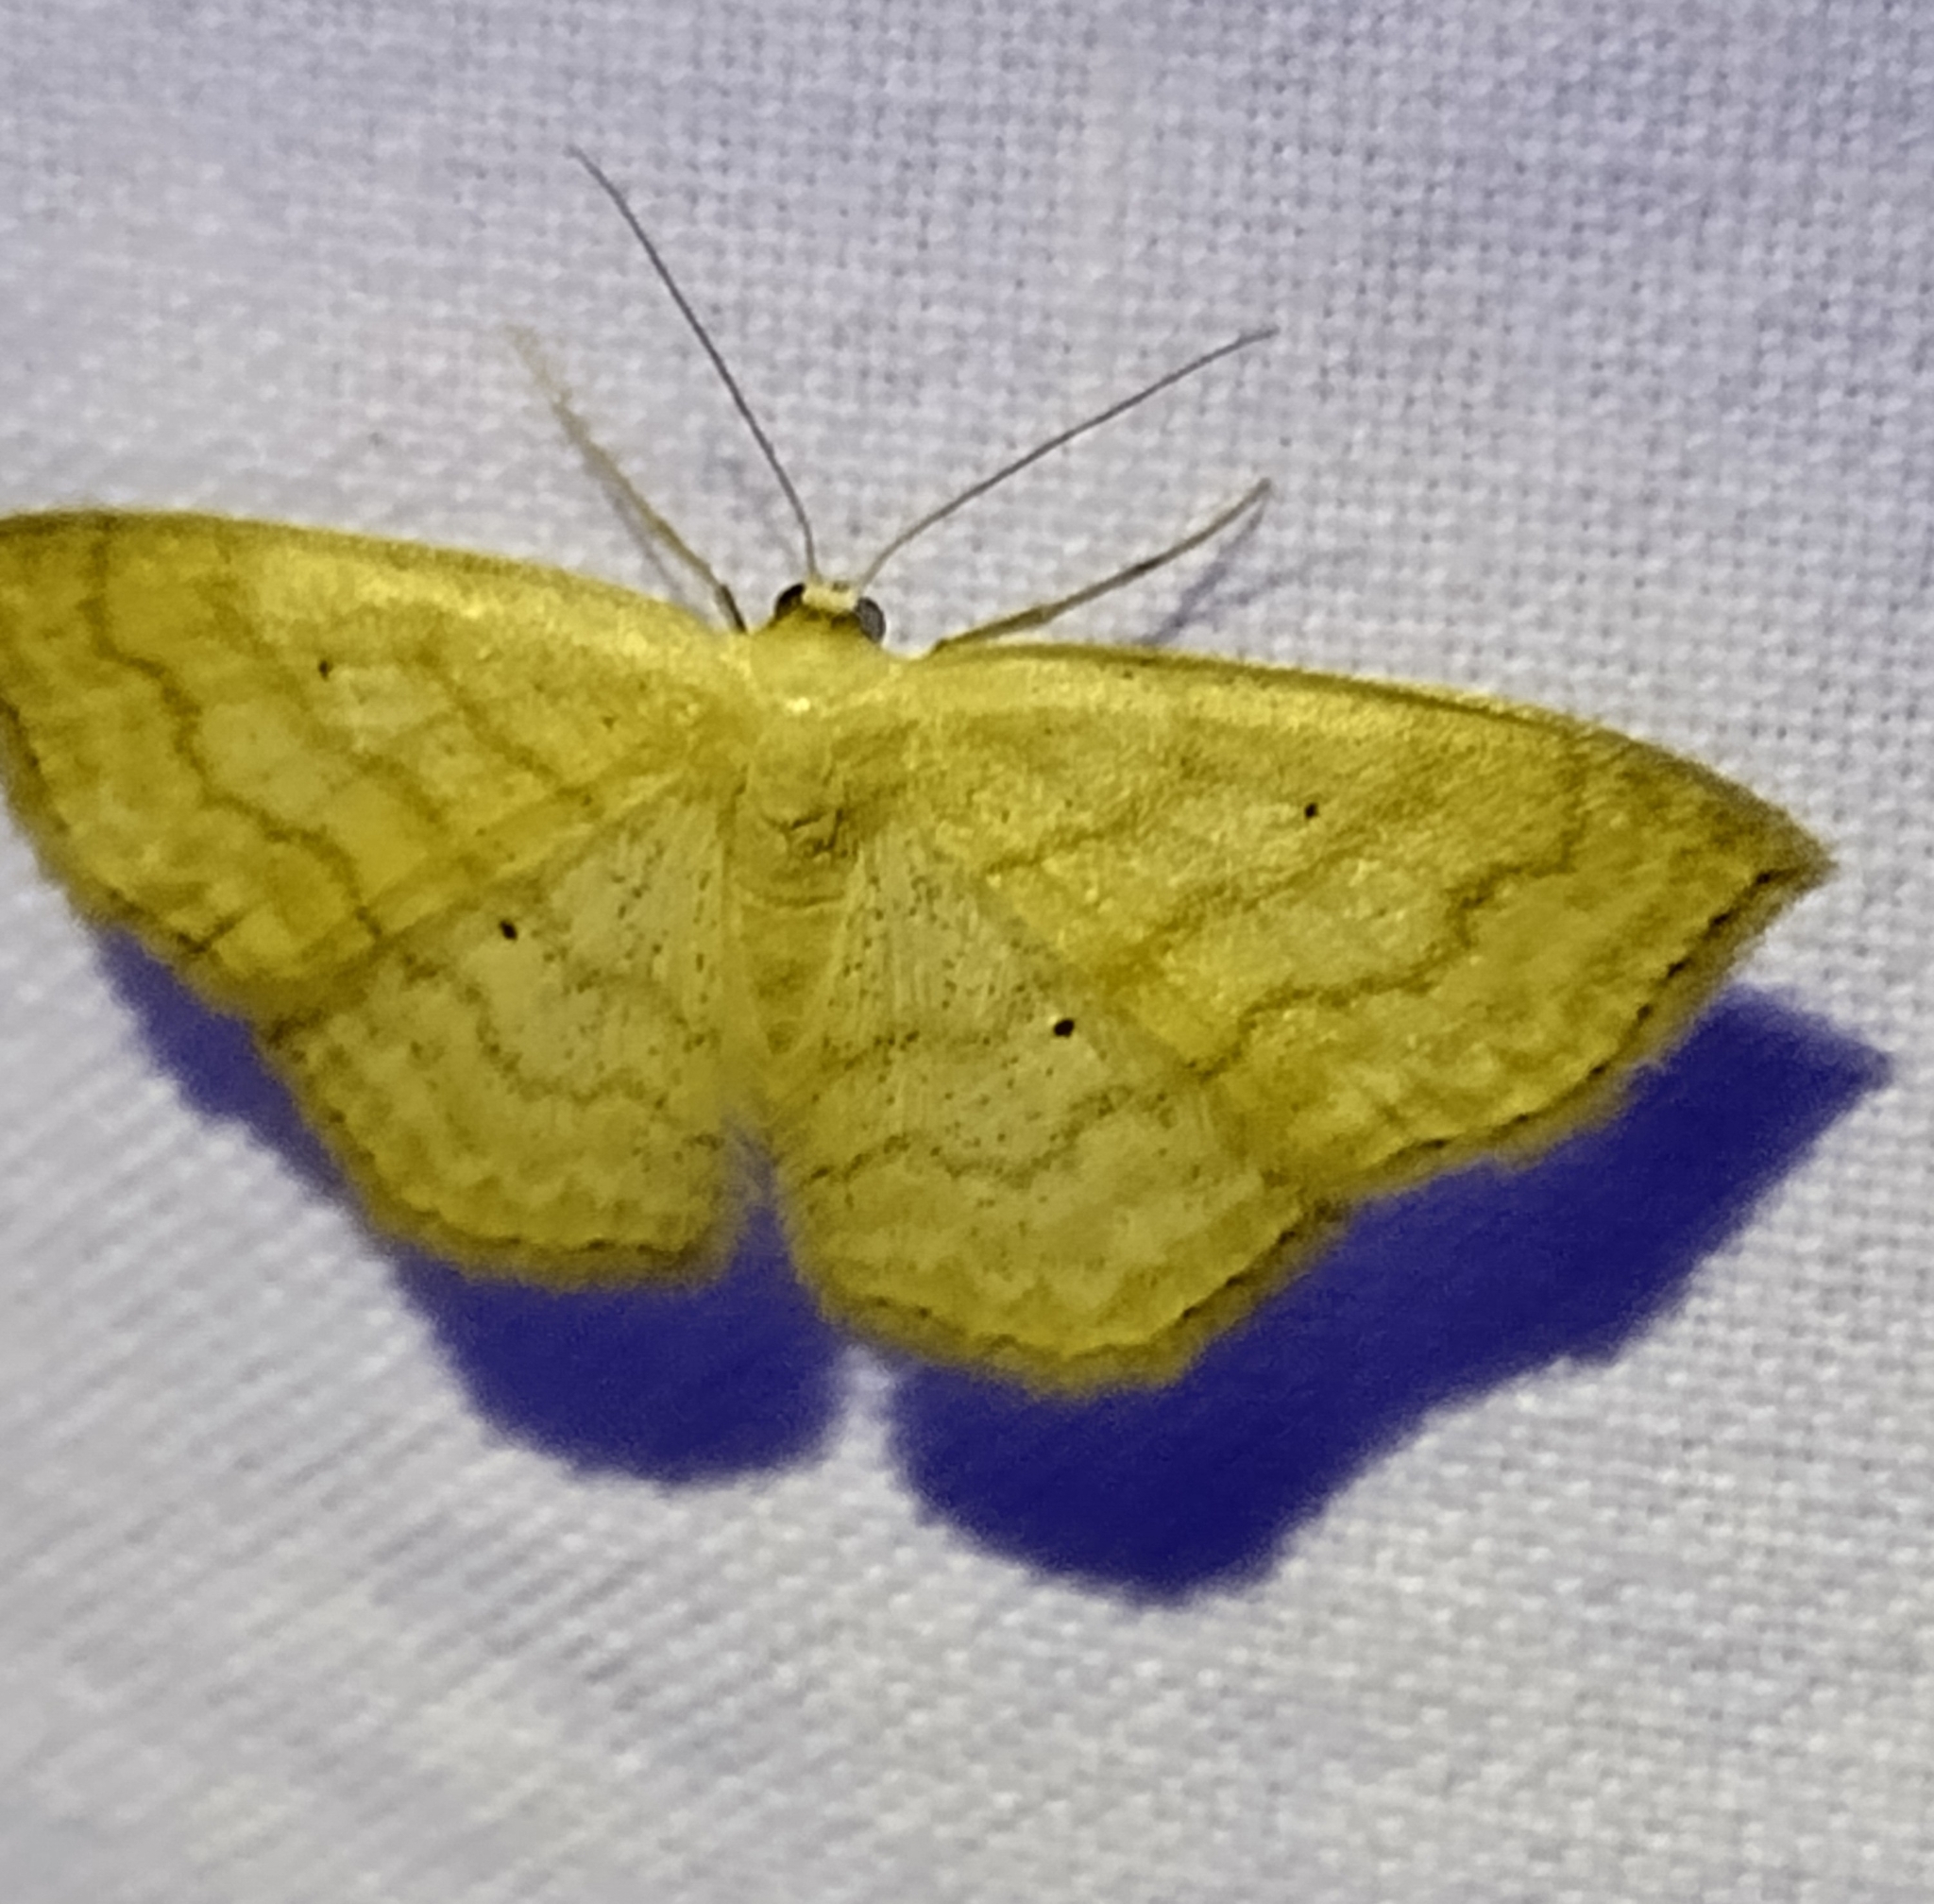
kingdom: Animalia
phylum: Arthropoda
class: Insecta
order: Lepidoptera
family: Geometridae
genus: Scopula
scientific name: Scopula limboundata
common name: Large lace border
